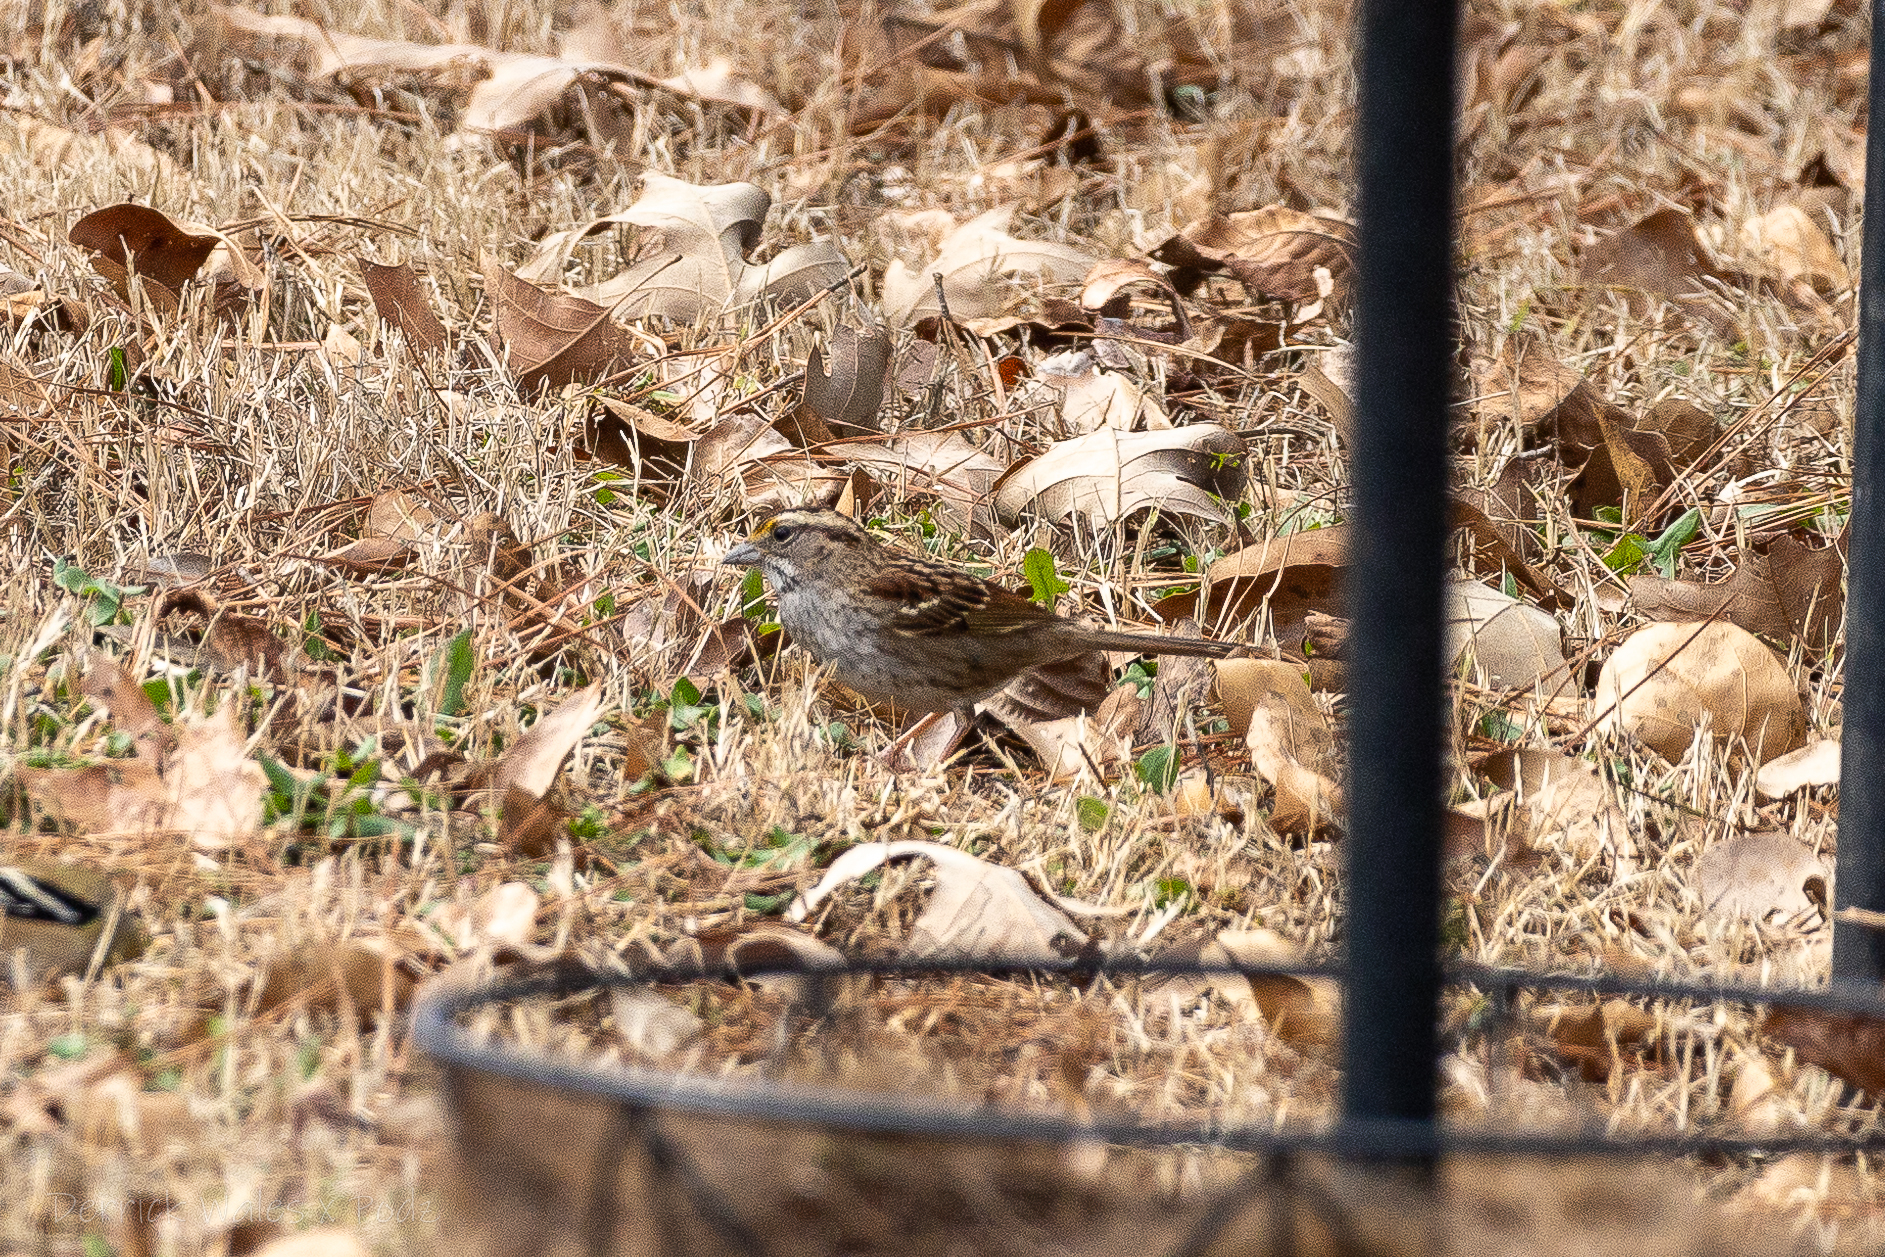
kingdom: Animalia
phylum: Chordata
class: Aves
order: Passeriformes
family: Passerellidae
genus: Zonotrichia
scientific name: Zonotrichia albicollis
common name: White-throated sparrow
